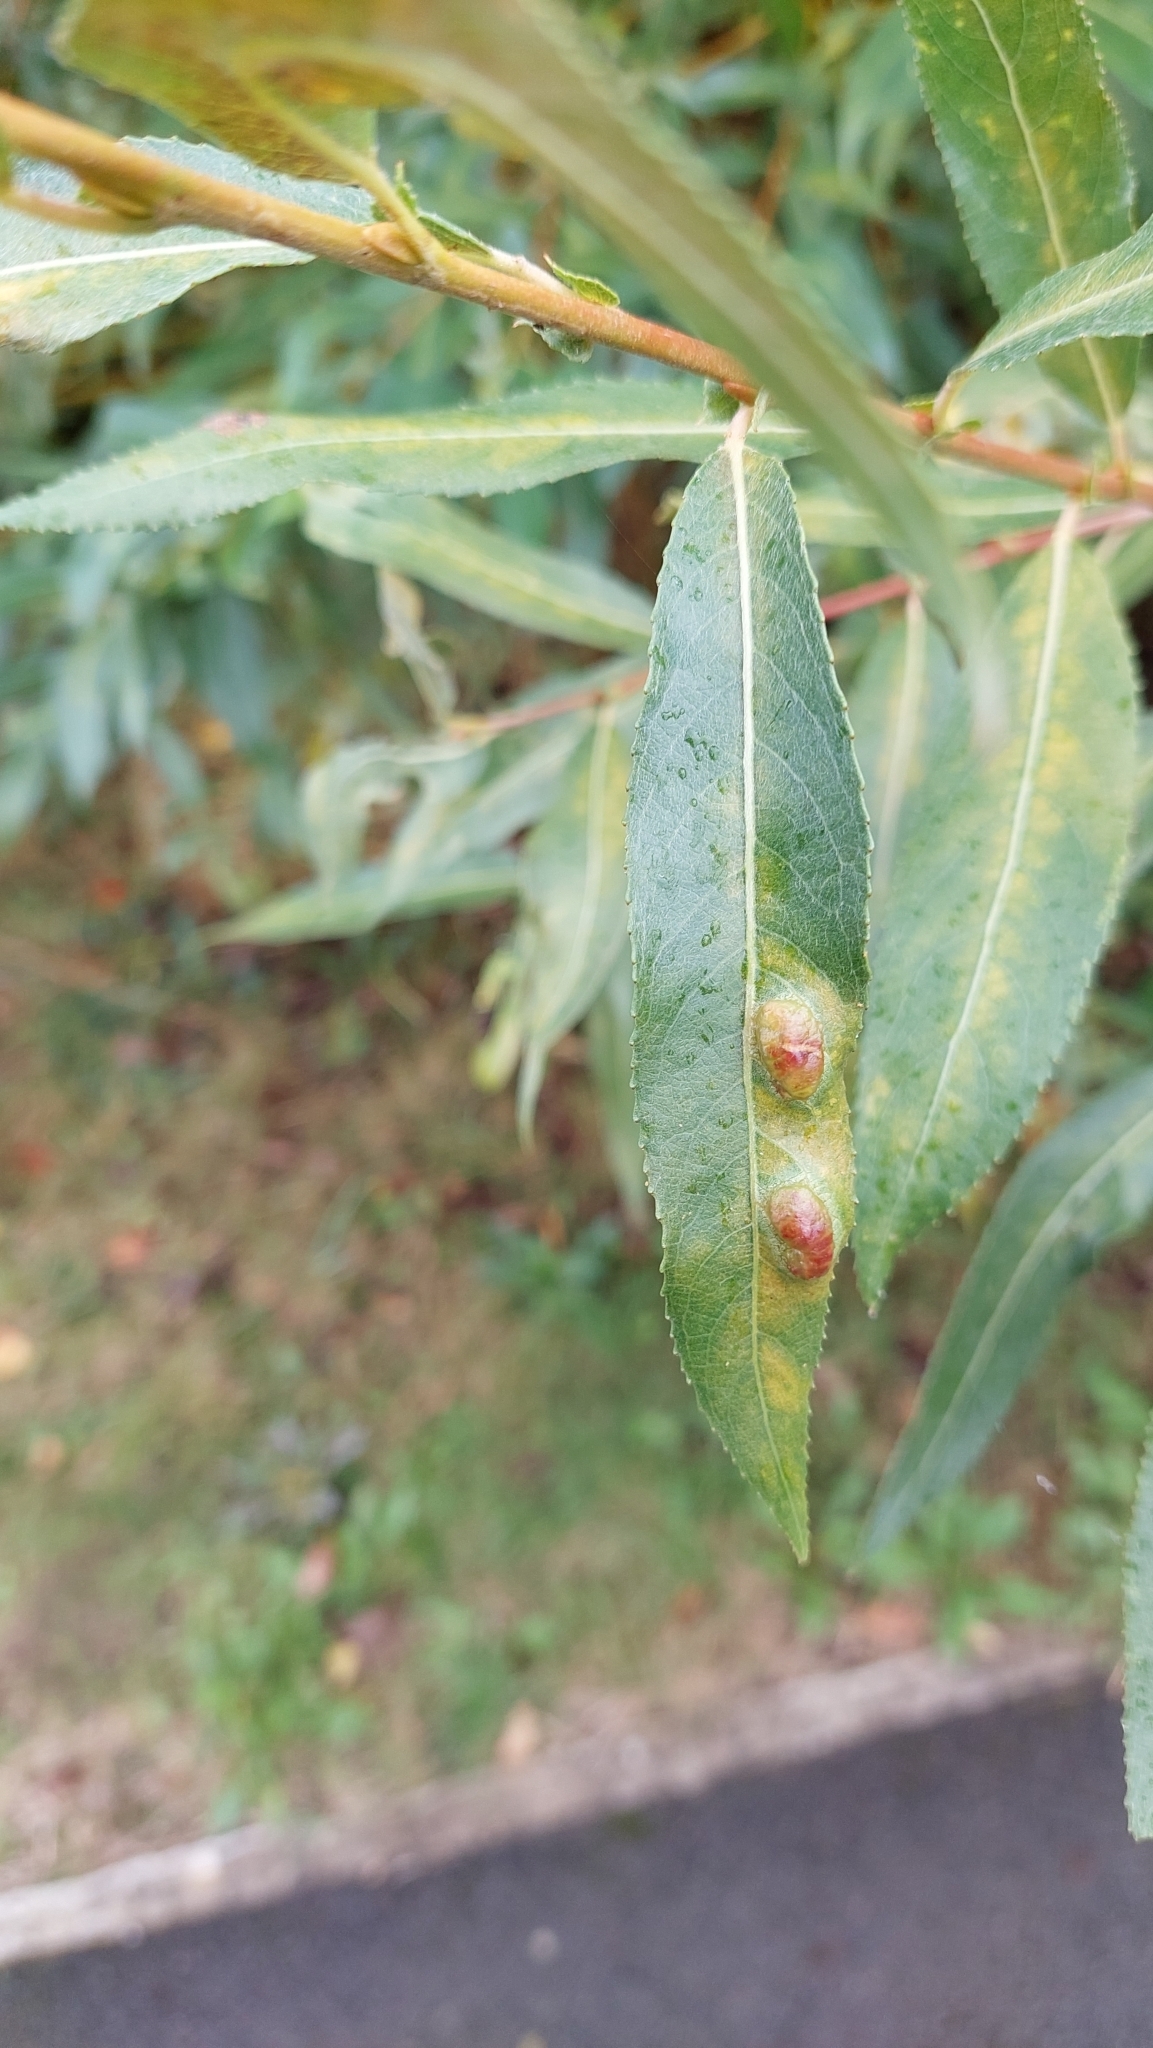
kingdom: Animalia
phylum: Arthropoda
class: Insecta
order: Hymenoptera
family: Tenthredinidae
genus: Pontania
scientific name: Pontania proxima
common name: Common sawfly
